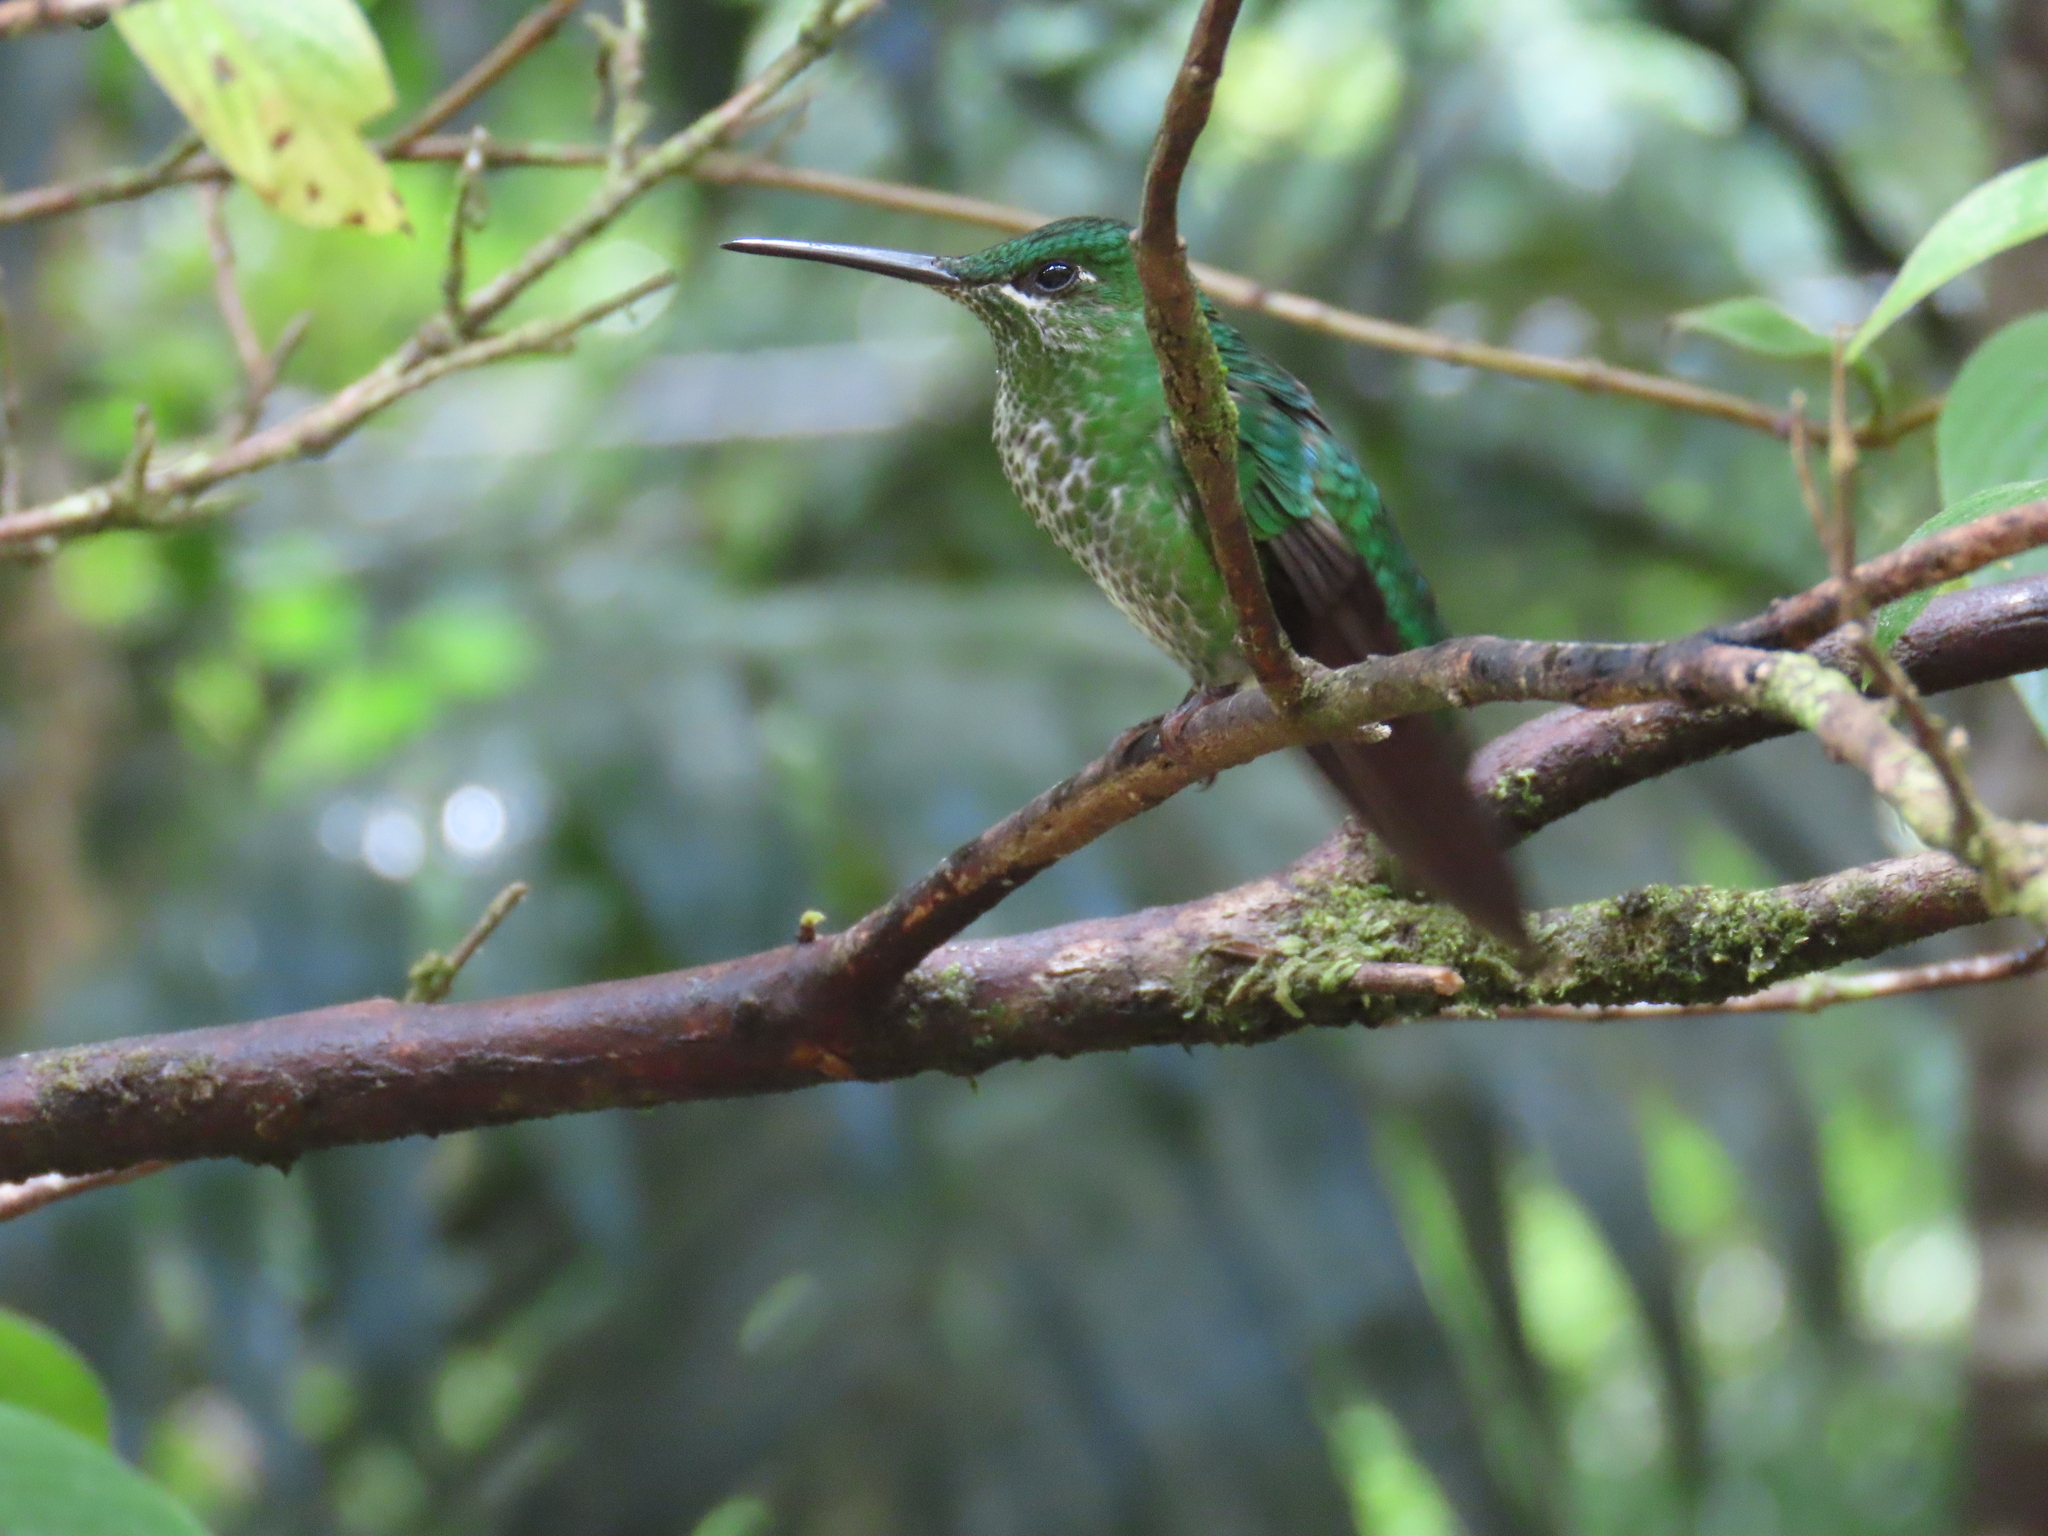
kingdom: Animalia
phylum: Chordata
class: Aves
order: Apodiformes
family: Trochilidae
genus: Heliodoxa
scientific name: Heliodoxa jacula
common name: Green-crowned brilliant
